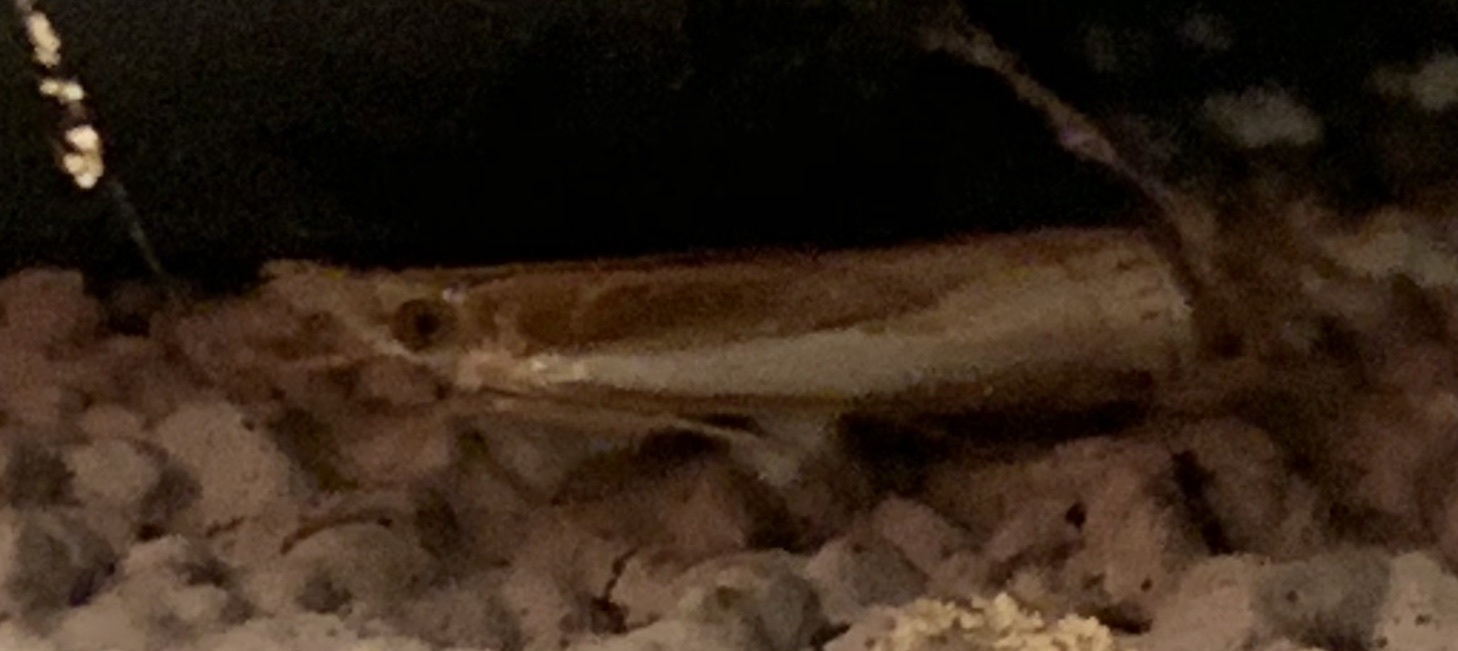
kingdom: Animalia
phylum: Arthropoda
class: Insecta
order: Lepidoptera
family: Crambidae
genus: Crambus
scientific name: Crambus
